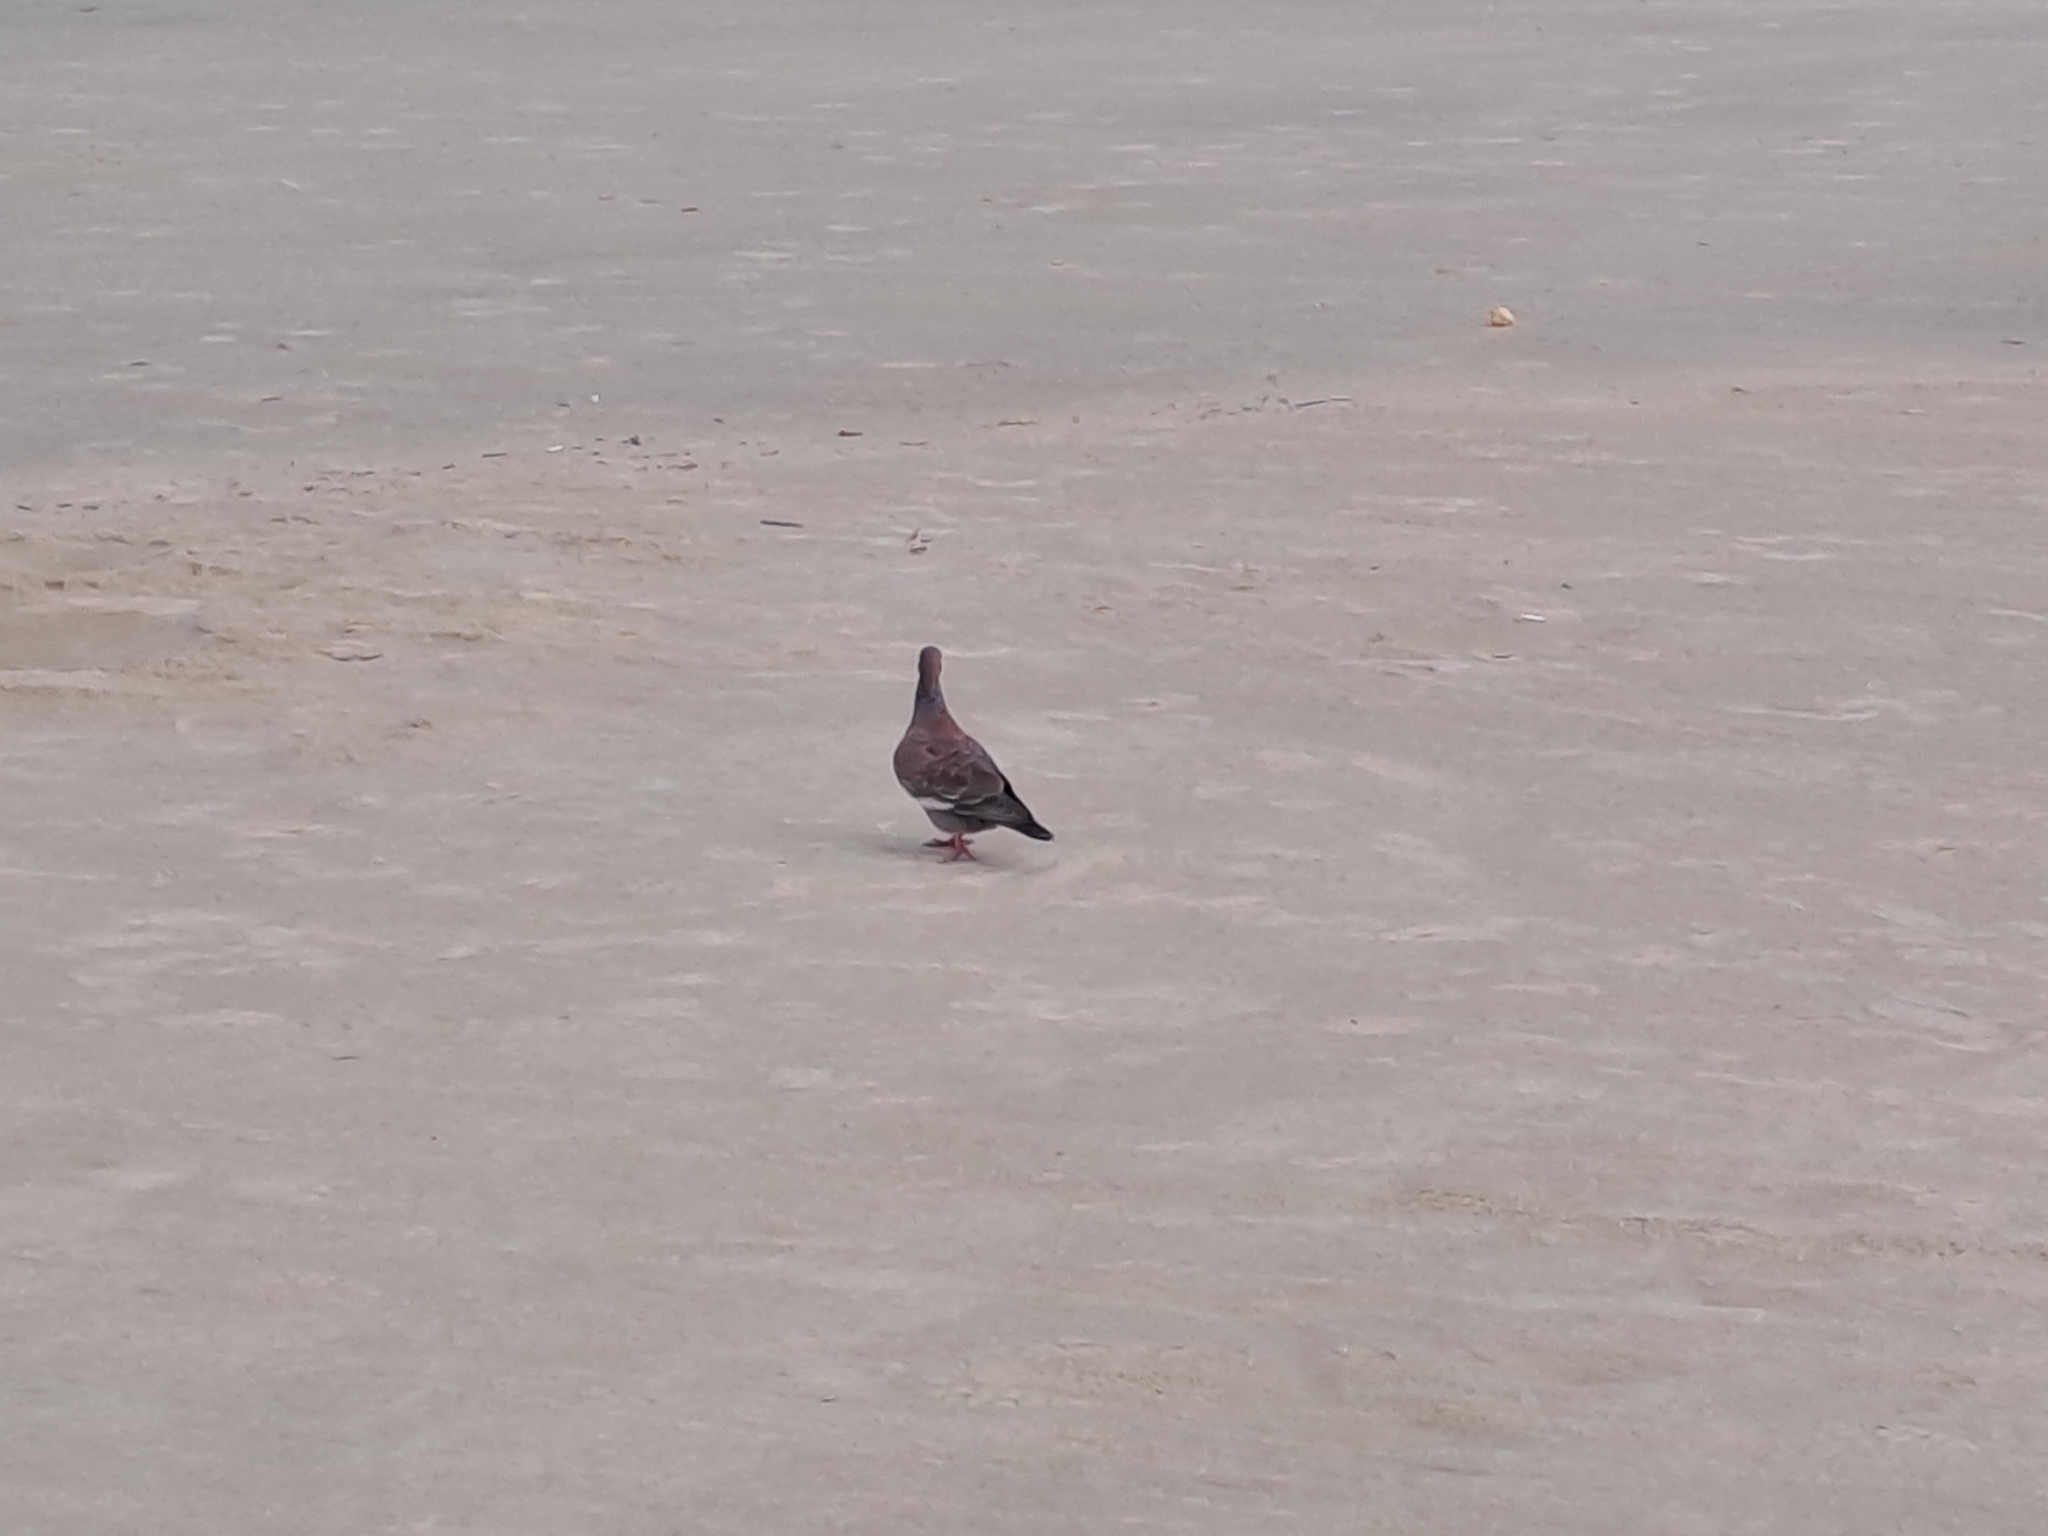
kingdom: Animalia
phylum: Chordata
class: Aves
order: Columbiformes
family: Columbidae
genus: Patagioenas
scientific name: Patagioenas picazuro
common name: Picazuro pigeon
